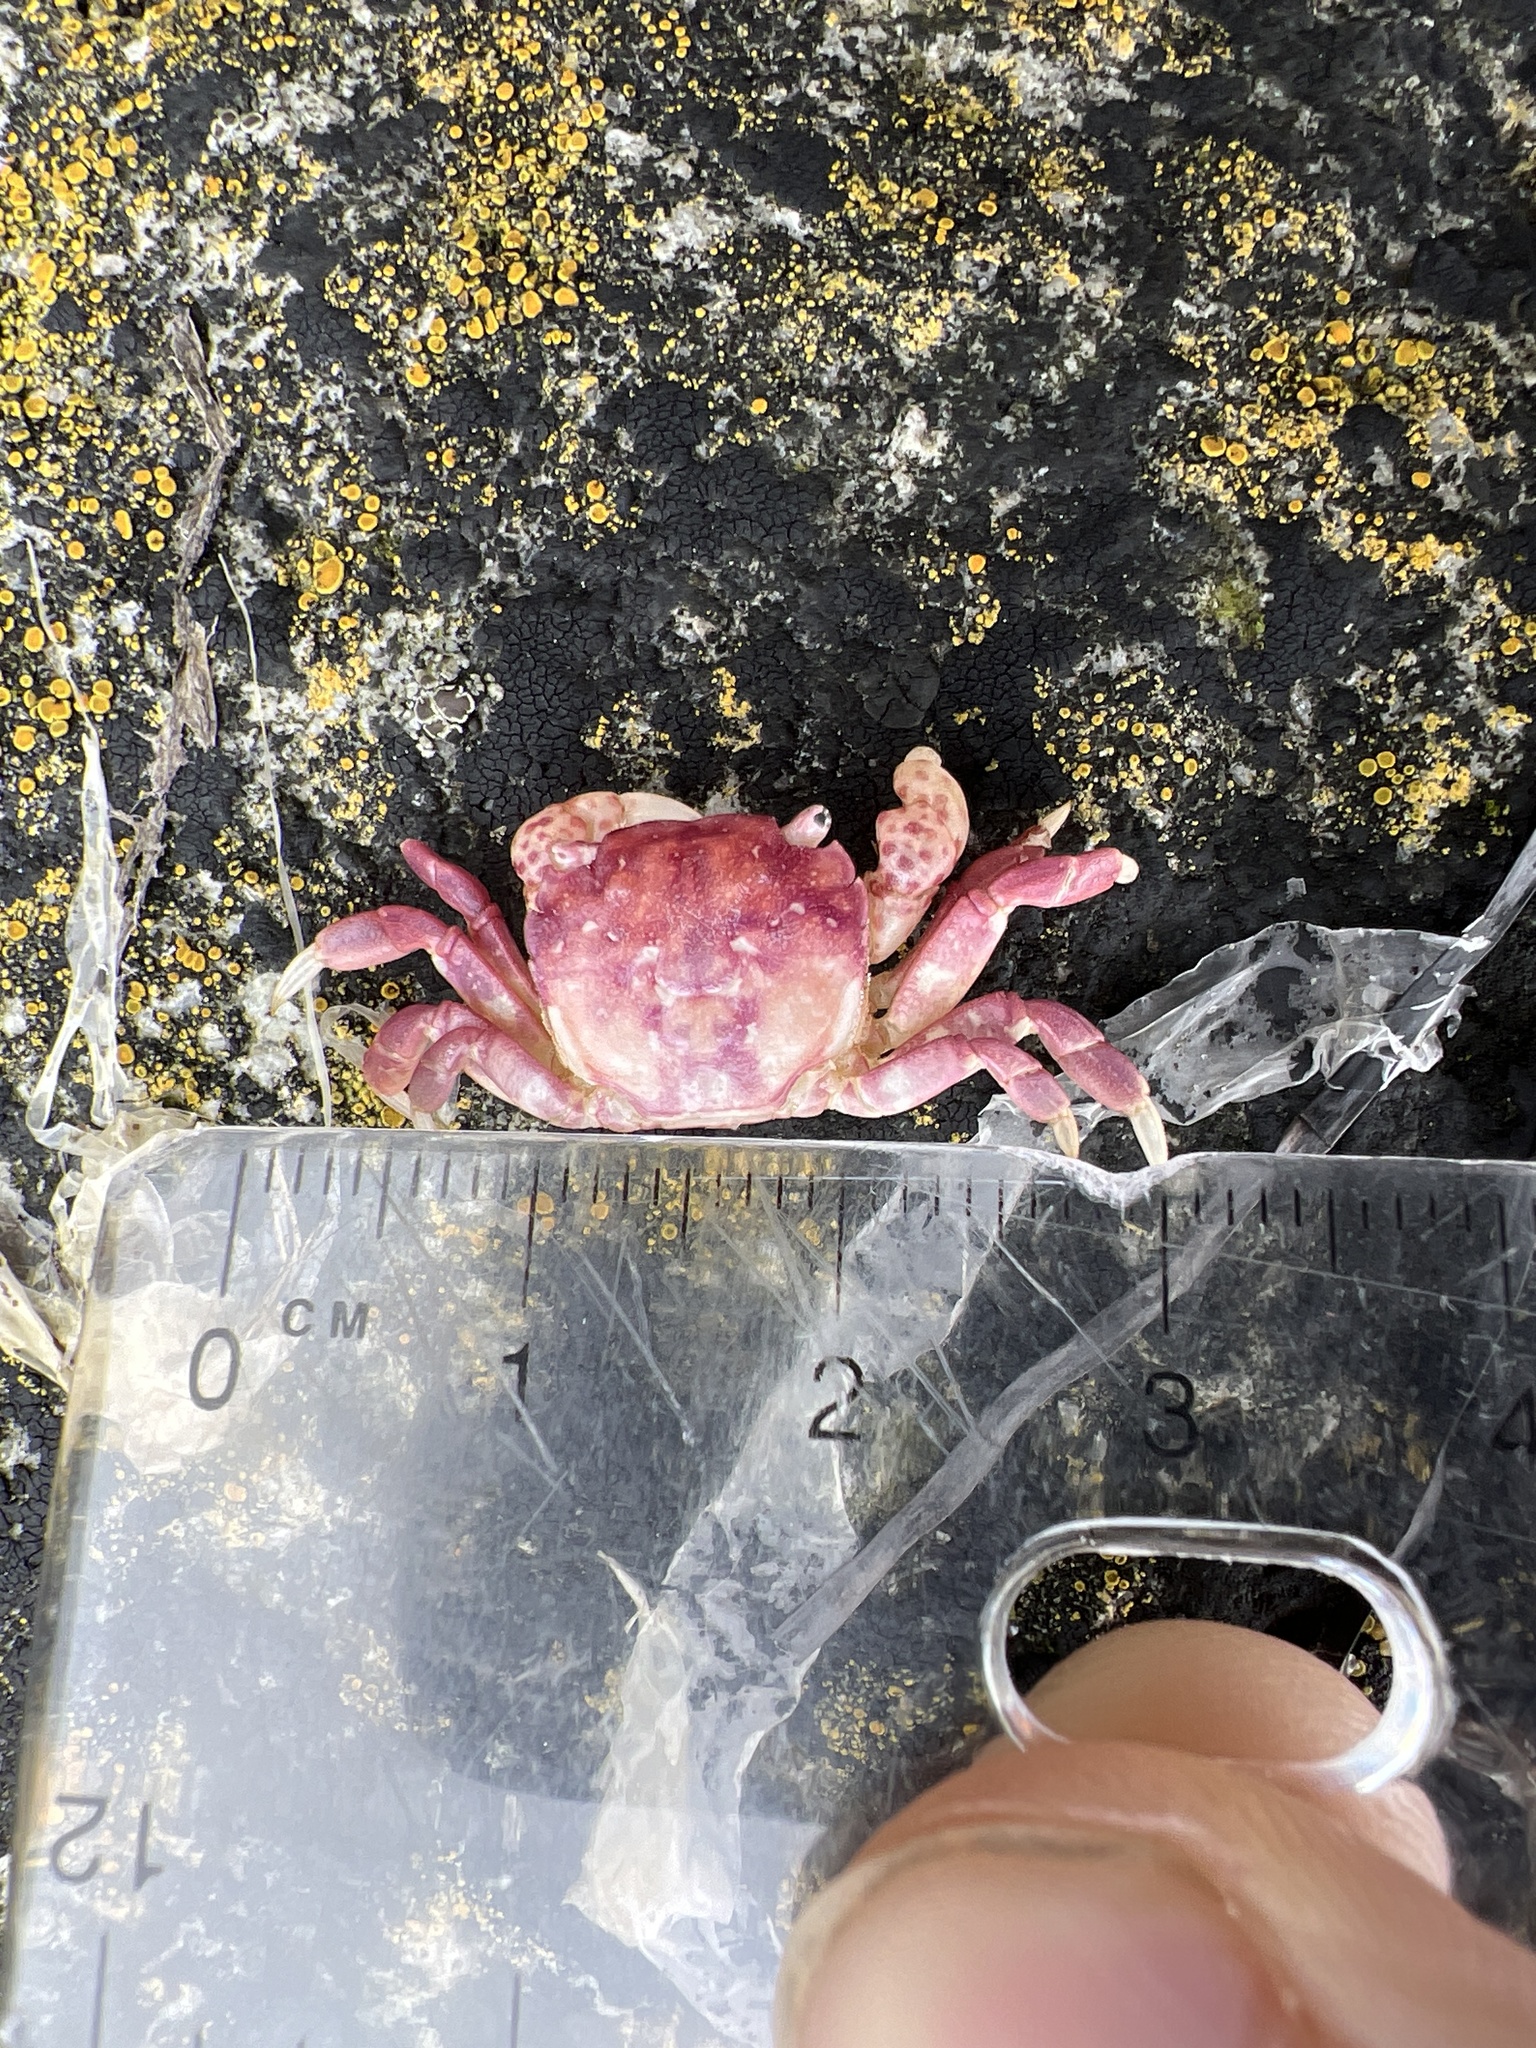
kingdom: Animalia
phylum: Arthropoda
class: Malacostraca
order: Decapoda
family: Varunidae
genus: Hemigrapsus
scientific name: Hemigrapsus nudus
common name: Purple shore crab
